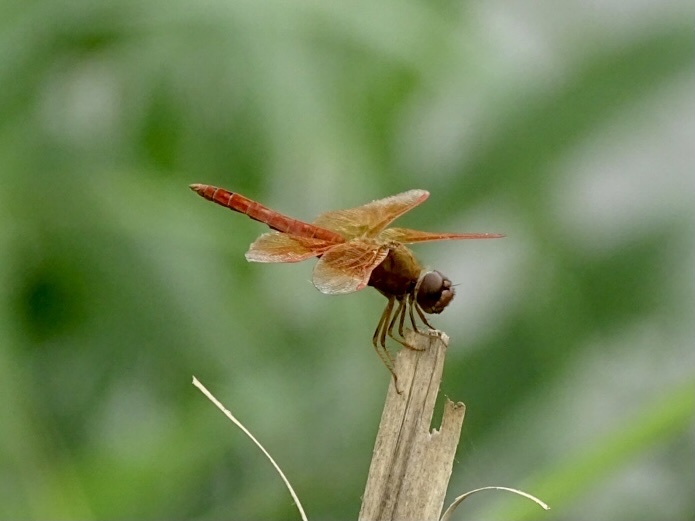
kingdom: Animalia
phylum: Arthropoda
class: Insecta
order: Odonata
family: Libellulidae
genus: Brachythemis
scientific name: Brachythemis contaminata
